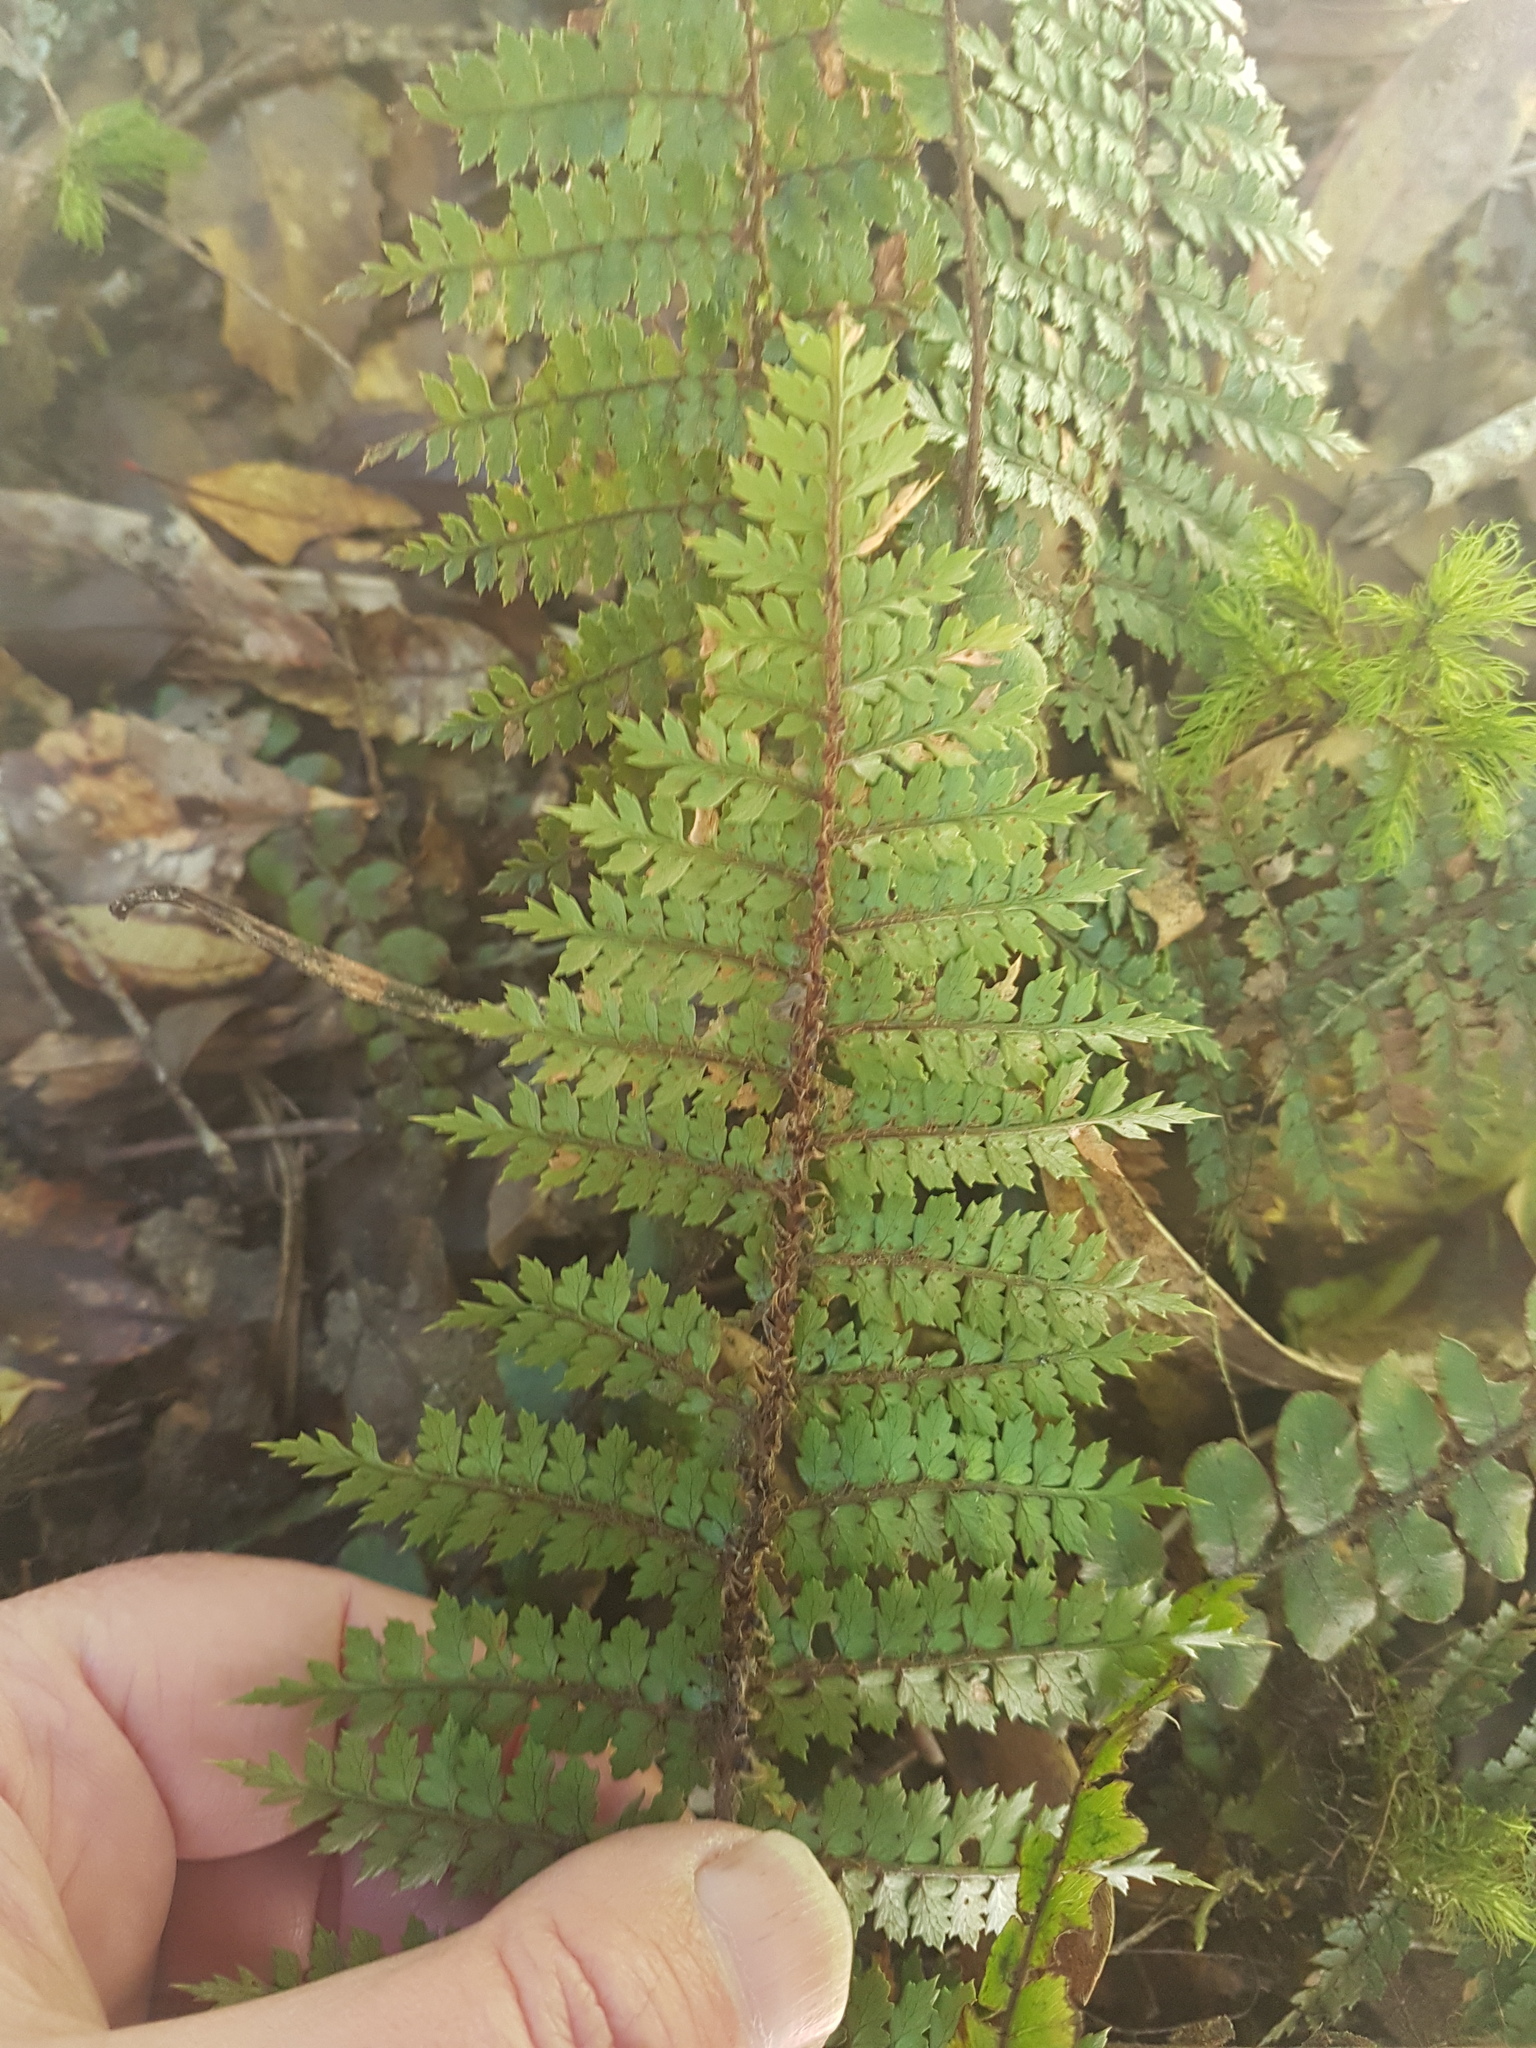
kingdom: Plantae
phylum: Tracheophyta
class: Polypodiopsida
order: Polypodiales
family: Dryopteridaceae
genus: Polystichum
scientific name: Polystichum vestitum
